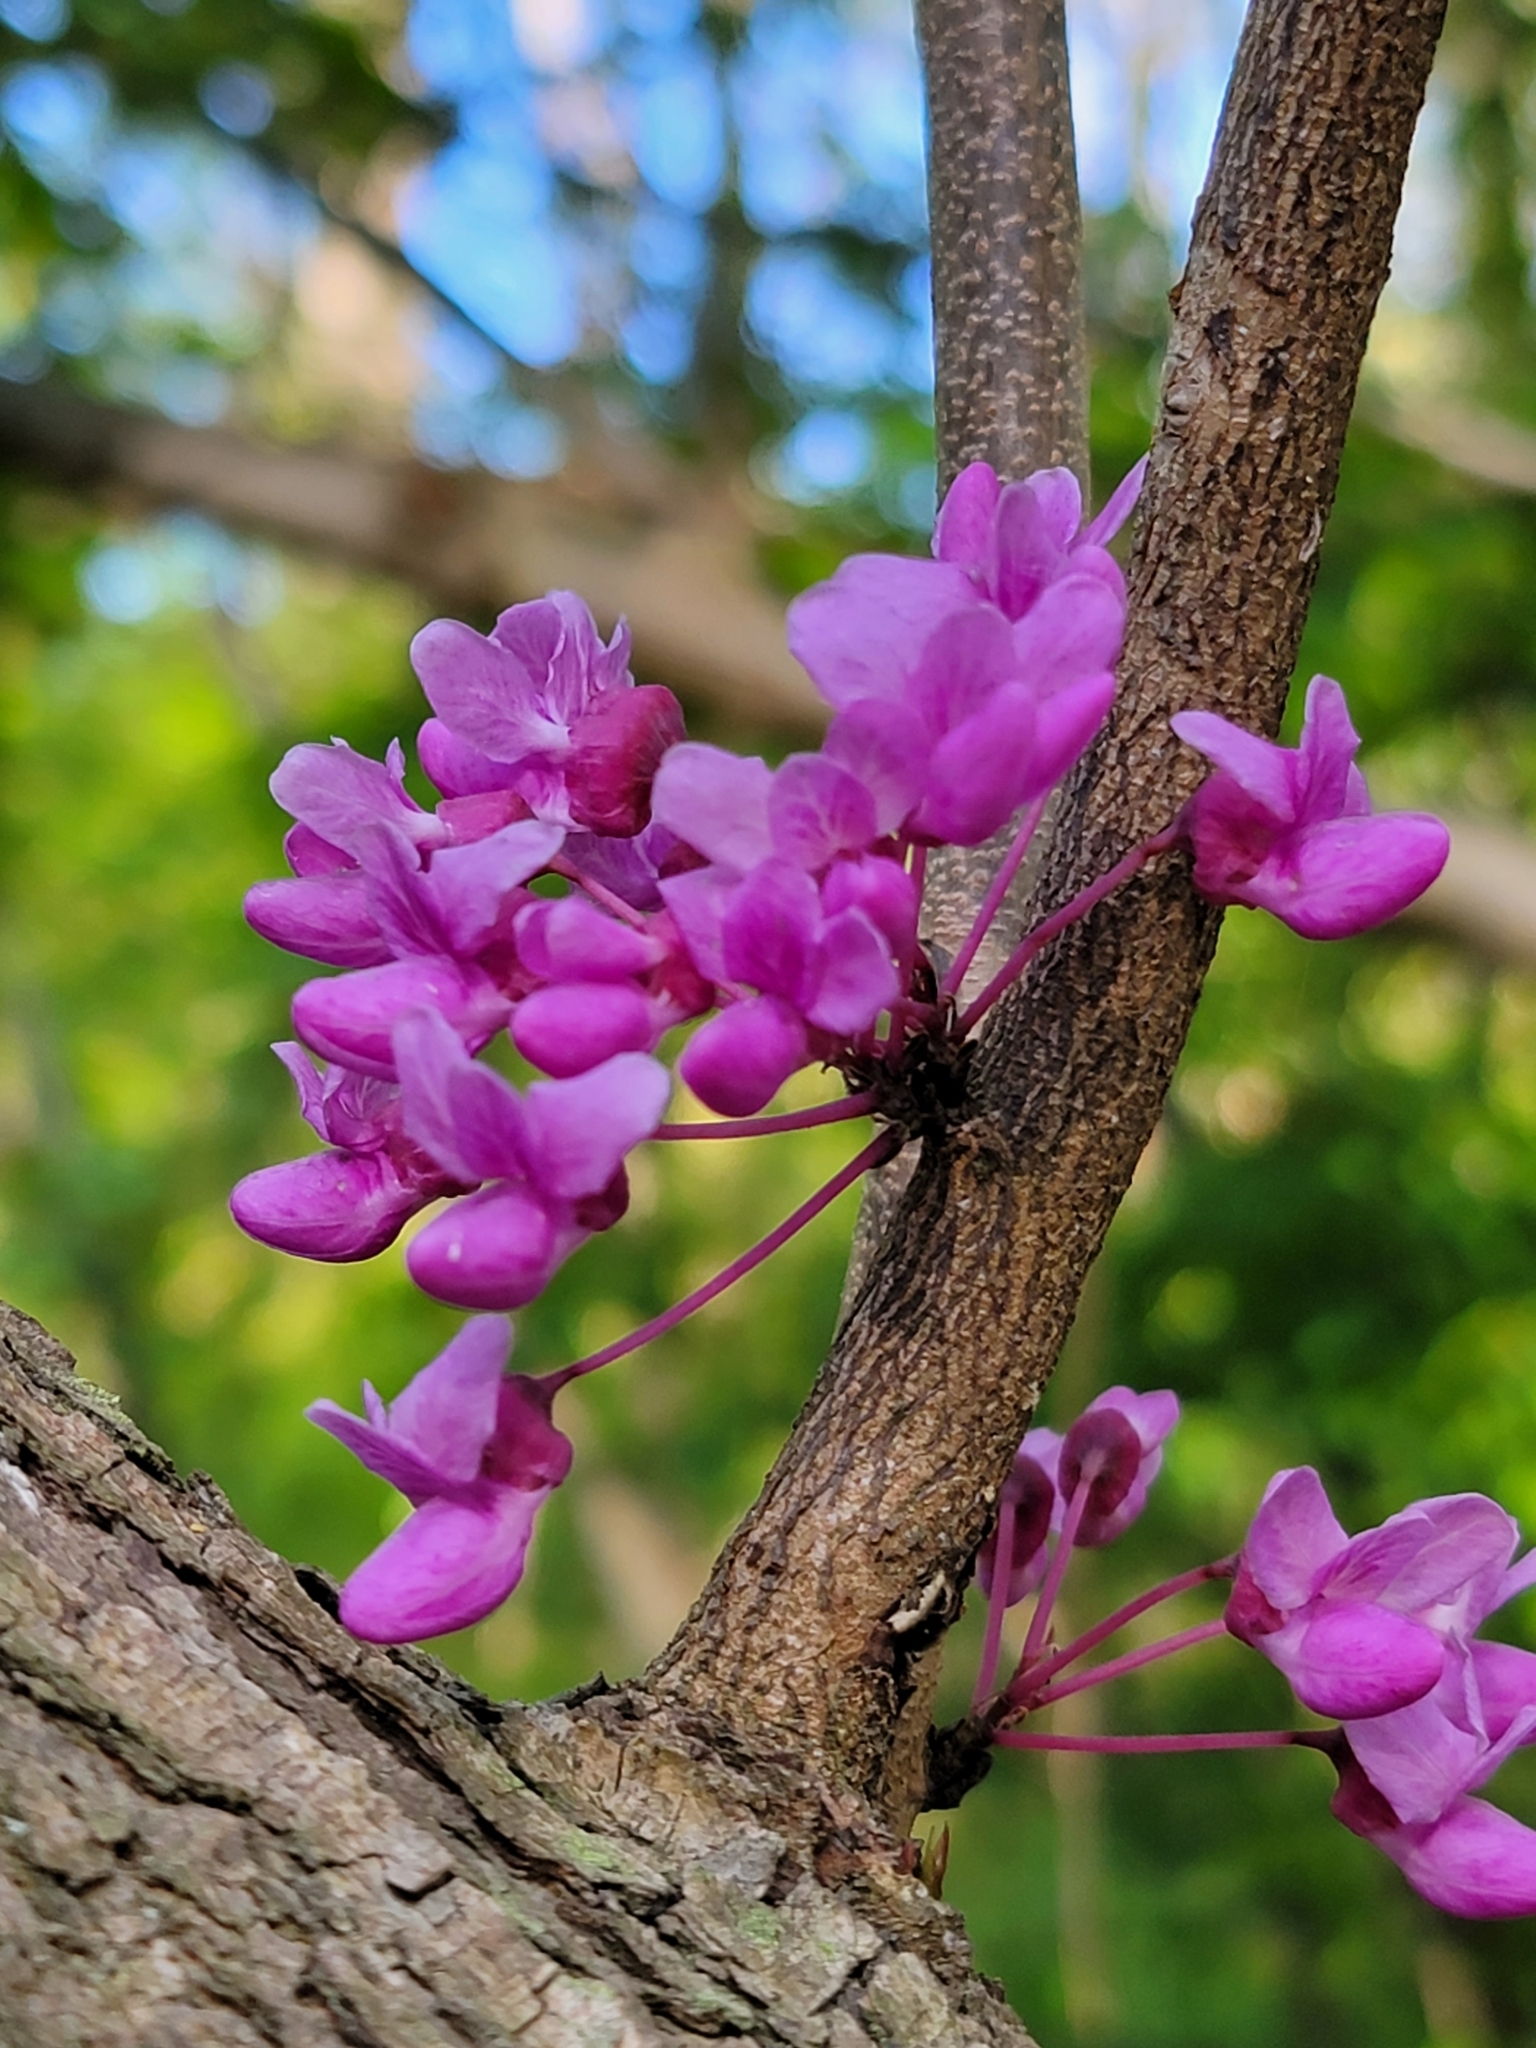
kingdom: Plantae
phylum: Tracheophyta
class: Magnoliopsida
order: Fabales
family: Fabaceae
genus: Cercis
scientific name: Cercis canadensis
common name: Eastern redbud
